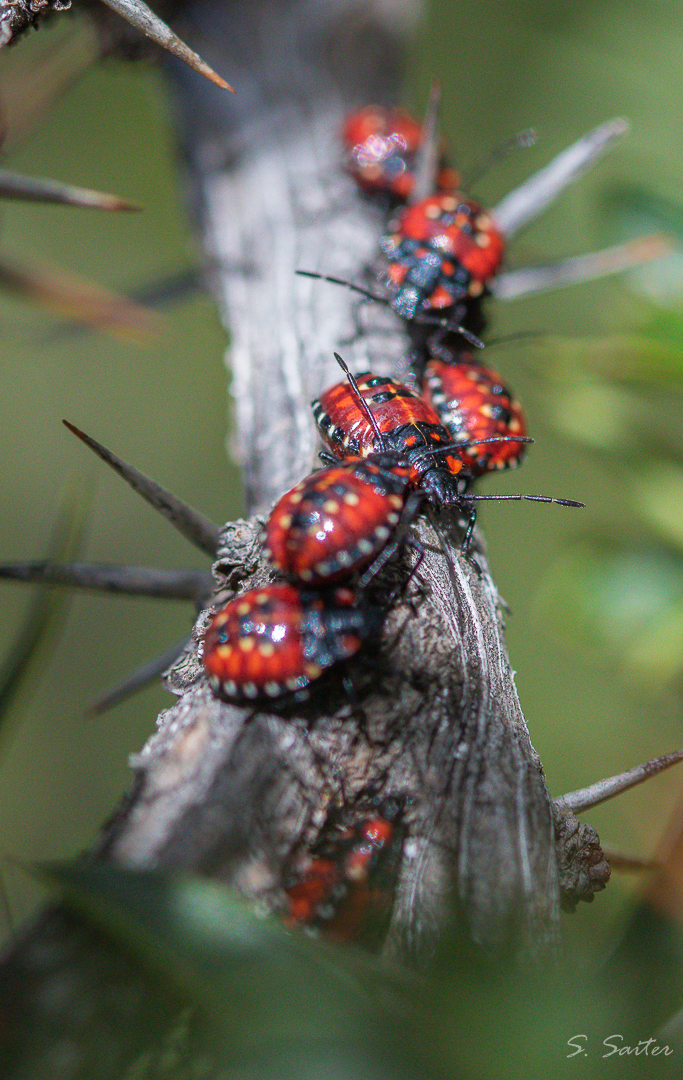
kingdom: Animalia
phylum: Arthropoda
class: Insecta
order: Hemiptera
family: Acanthosomatidae
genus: Phorbanta
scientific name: Phorbanta variabilis
